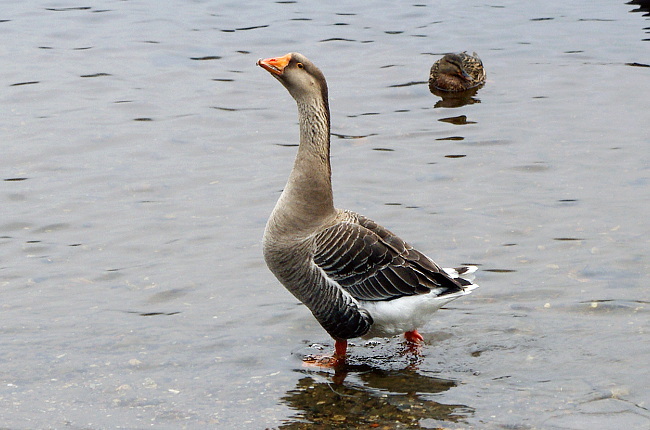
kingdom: Animalia
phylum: Chordata
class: Aves
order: Anseriformes
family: Anatidae
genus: Anser
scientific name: Anser
